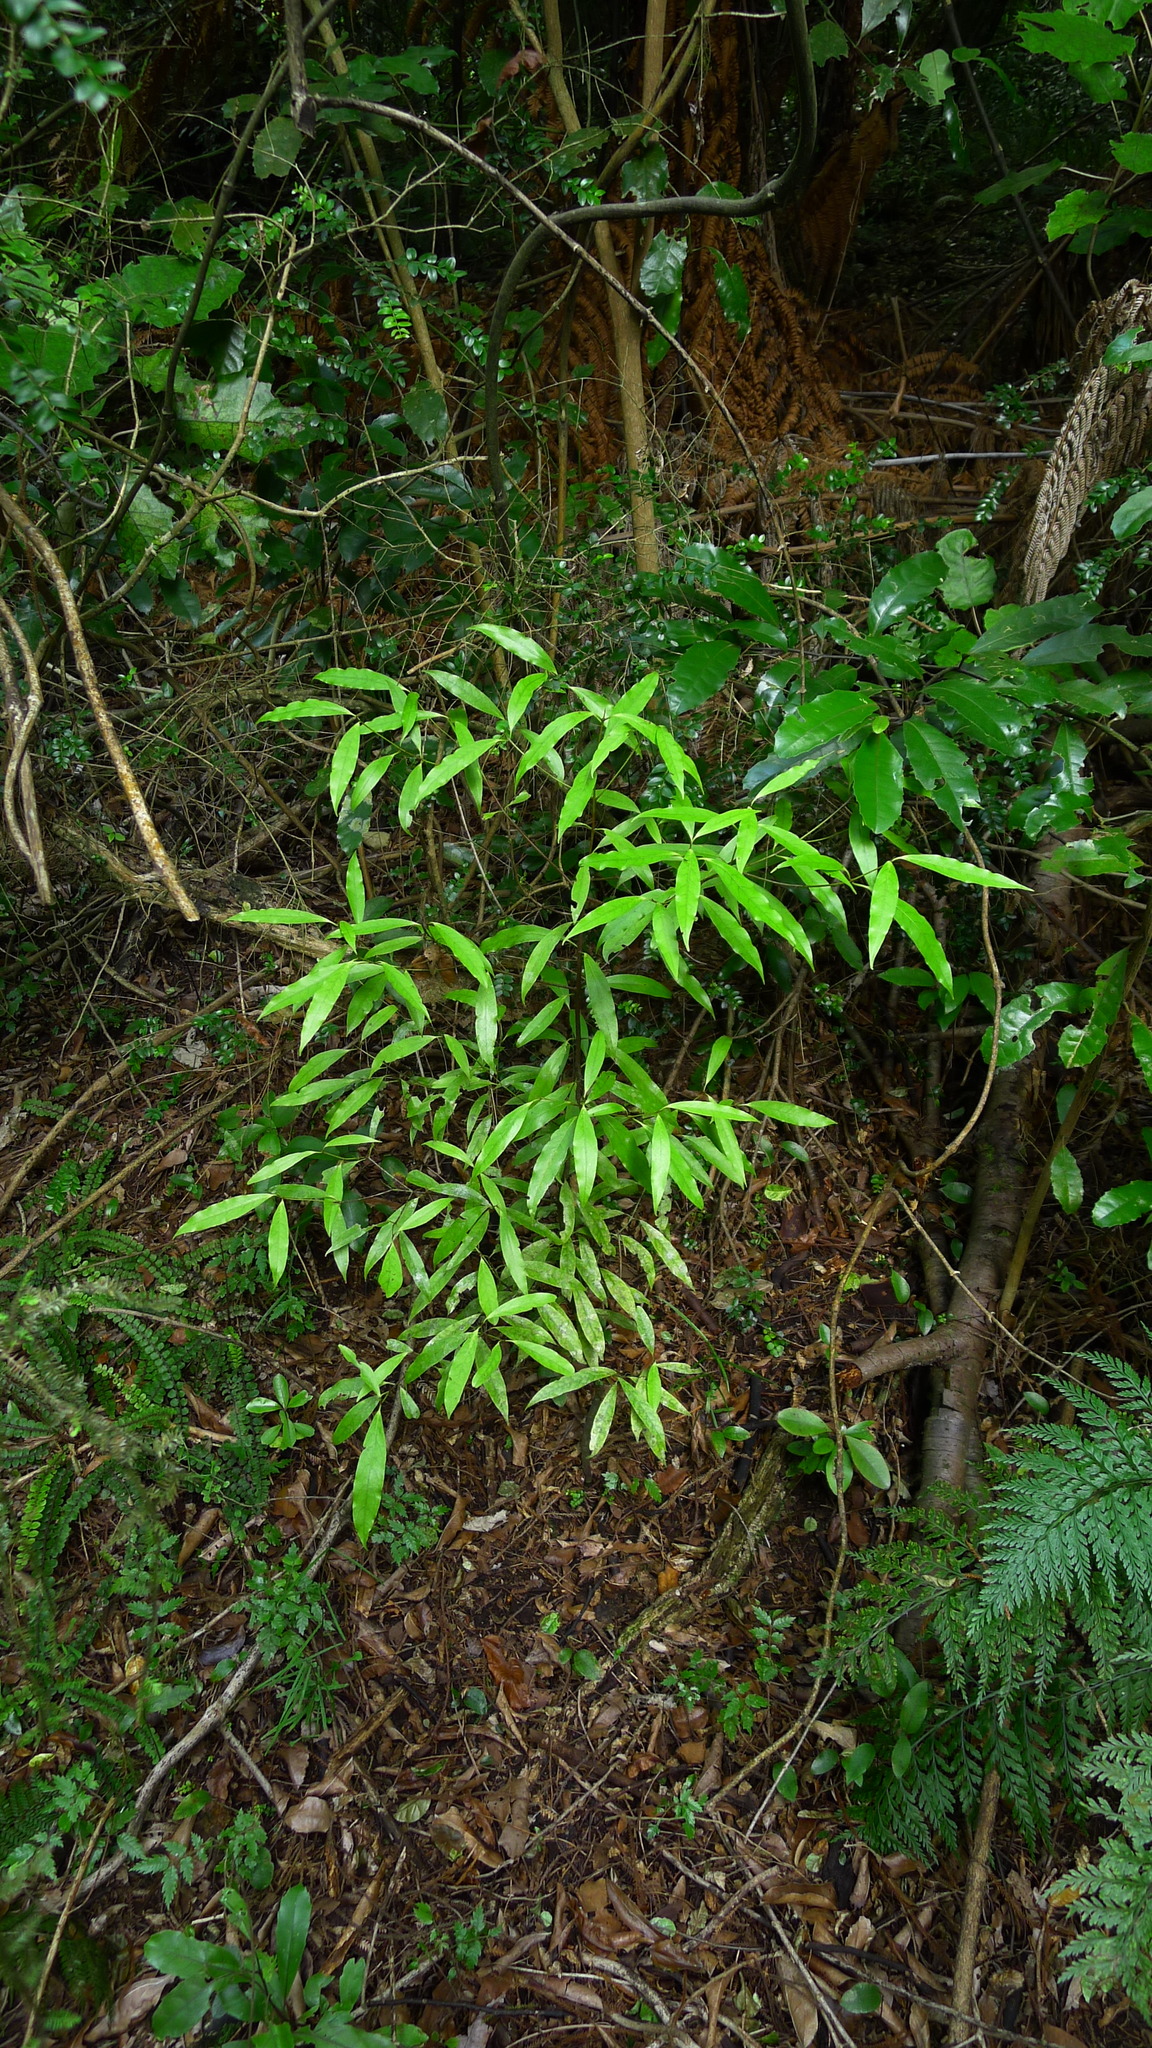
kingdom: Plantae
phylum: Tracheophyta
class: Magnoliopsida
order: Laurales
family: Lauraceae
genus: Beilschmiedia
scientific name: Beilschmiedia tawa
